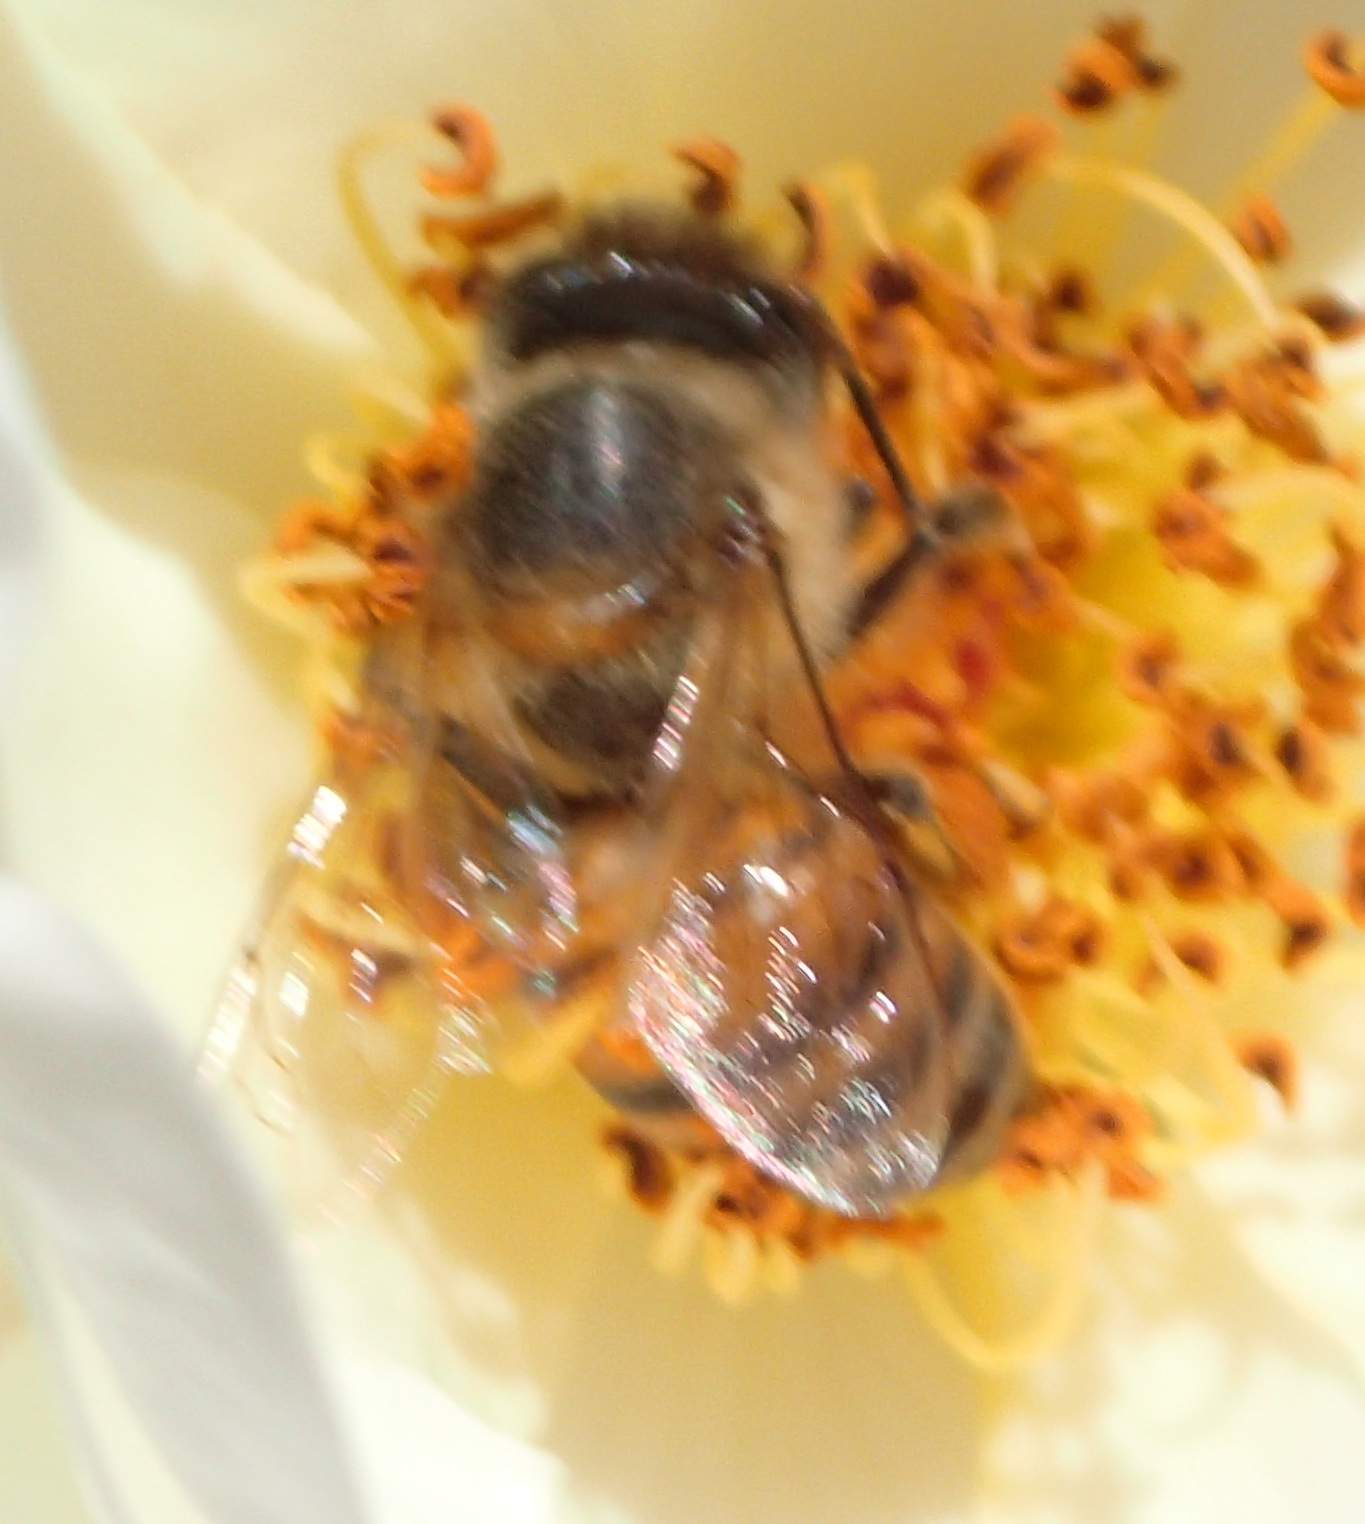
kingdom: Animalia
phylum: Arthropoda
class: Insecta
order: Hymenoptera
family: Apidae
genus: Apis
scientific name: Apis mellifera
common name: Honey bee
